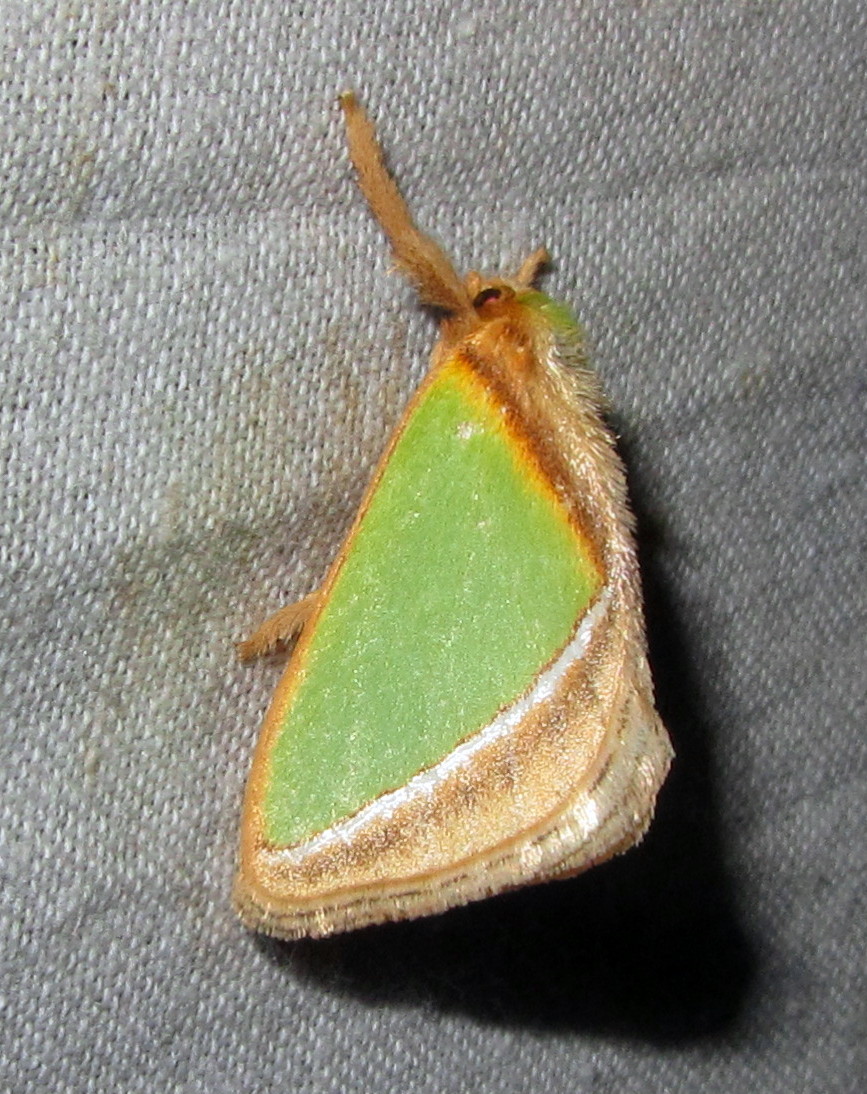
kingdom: Animalia
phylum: Arthropoda
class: Insecta
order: Lepidoptera
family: Limacodidae
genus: Nephelimorpha
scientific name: Nephelimorpha argentilinea
